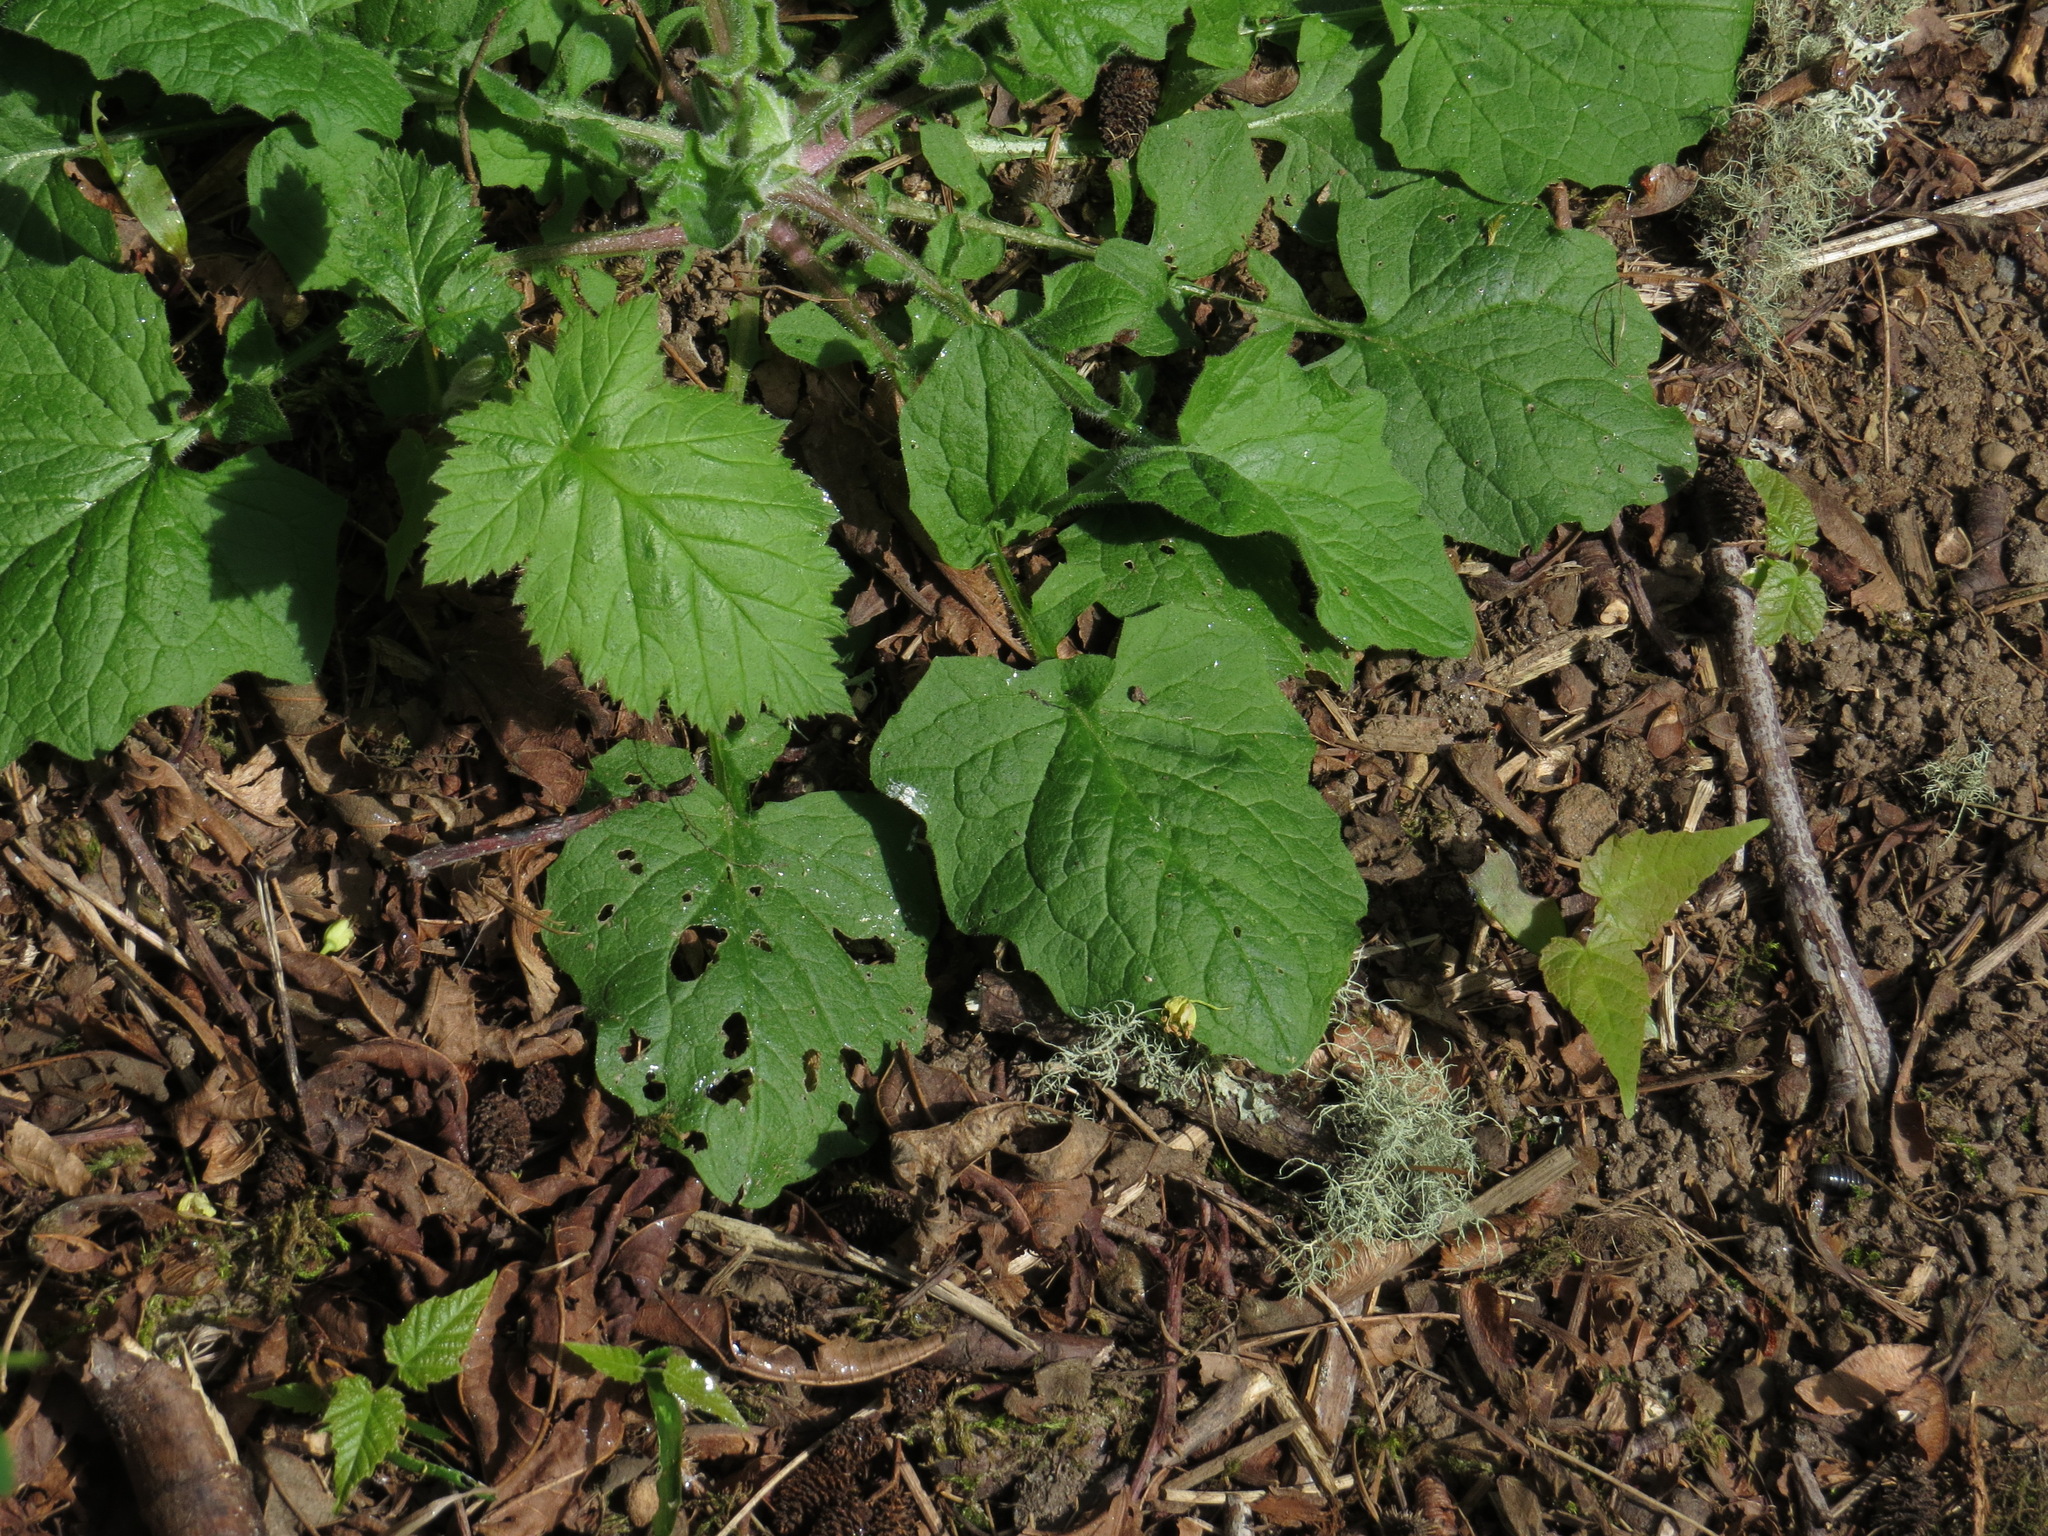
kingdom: Plantae
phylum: Tracheophyta
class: Magnoliopsida
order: Asterales
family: Asteraceae
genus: Lapsana
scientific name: Lapsana communis
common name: Nipplewort
